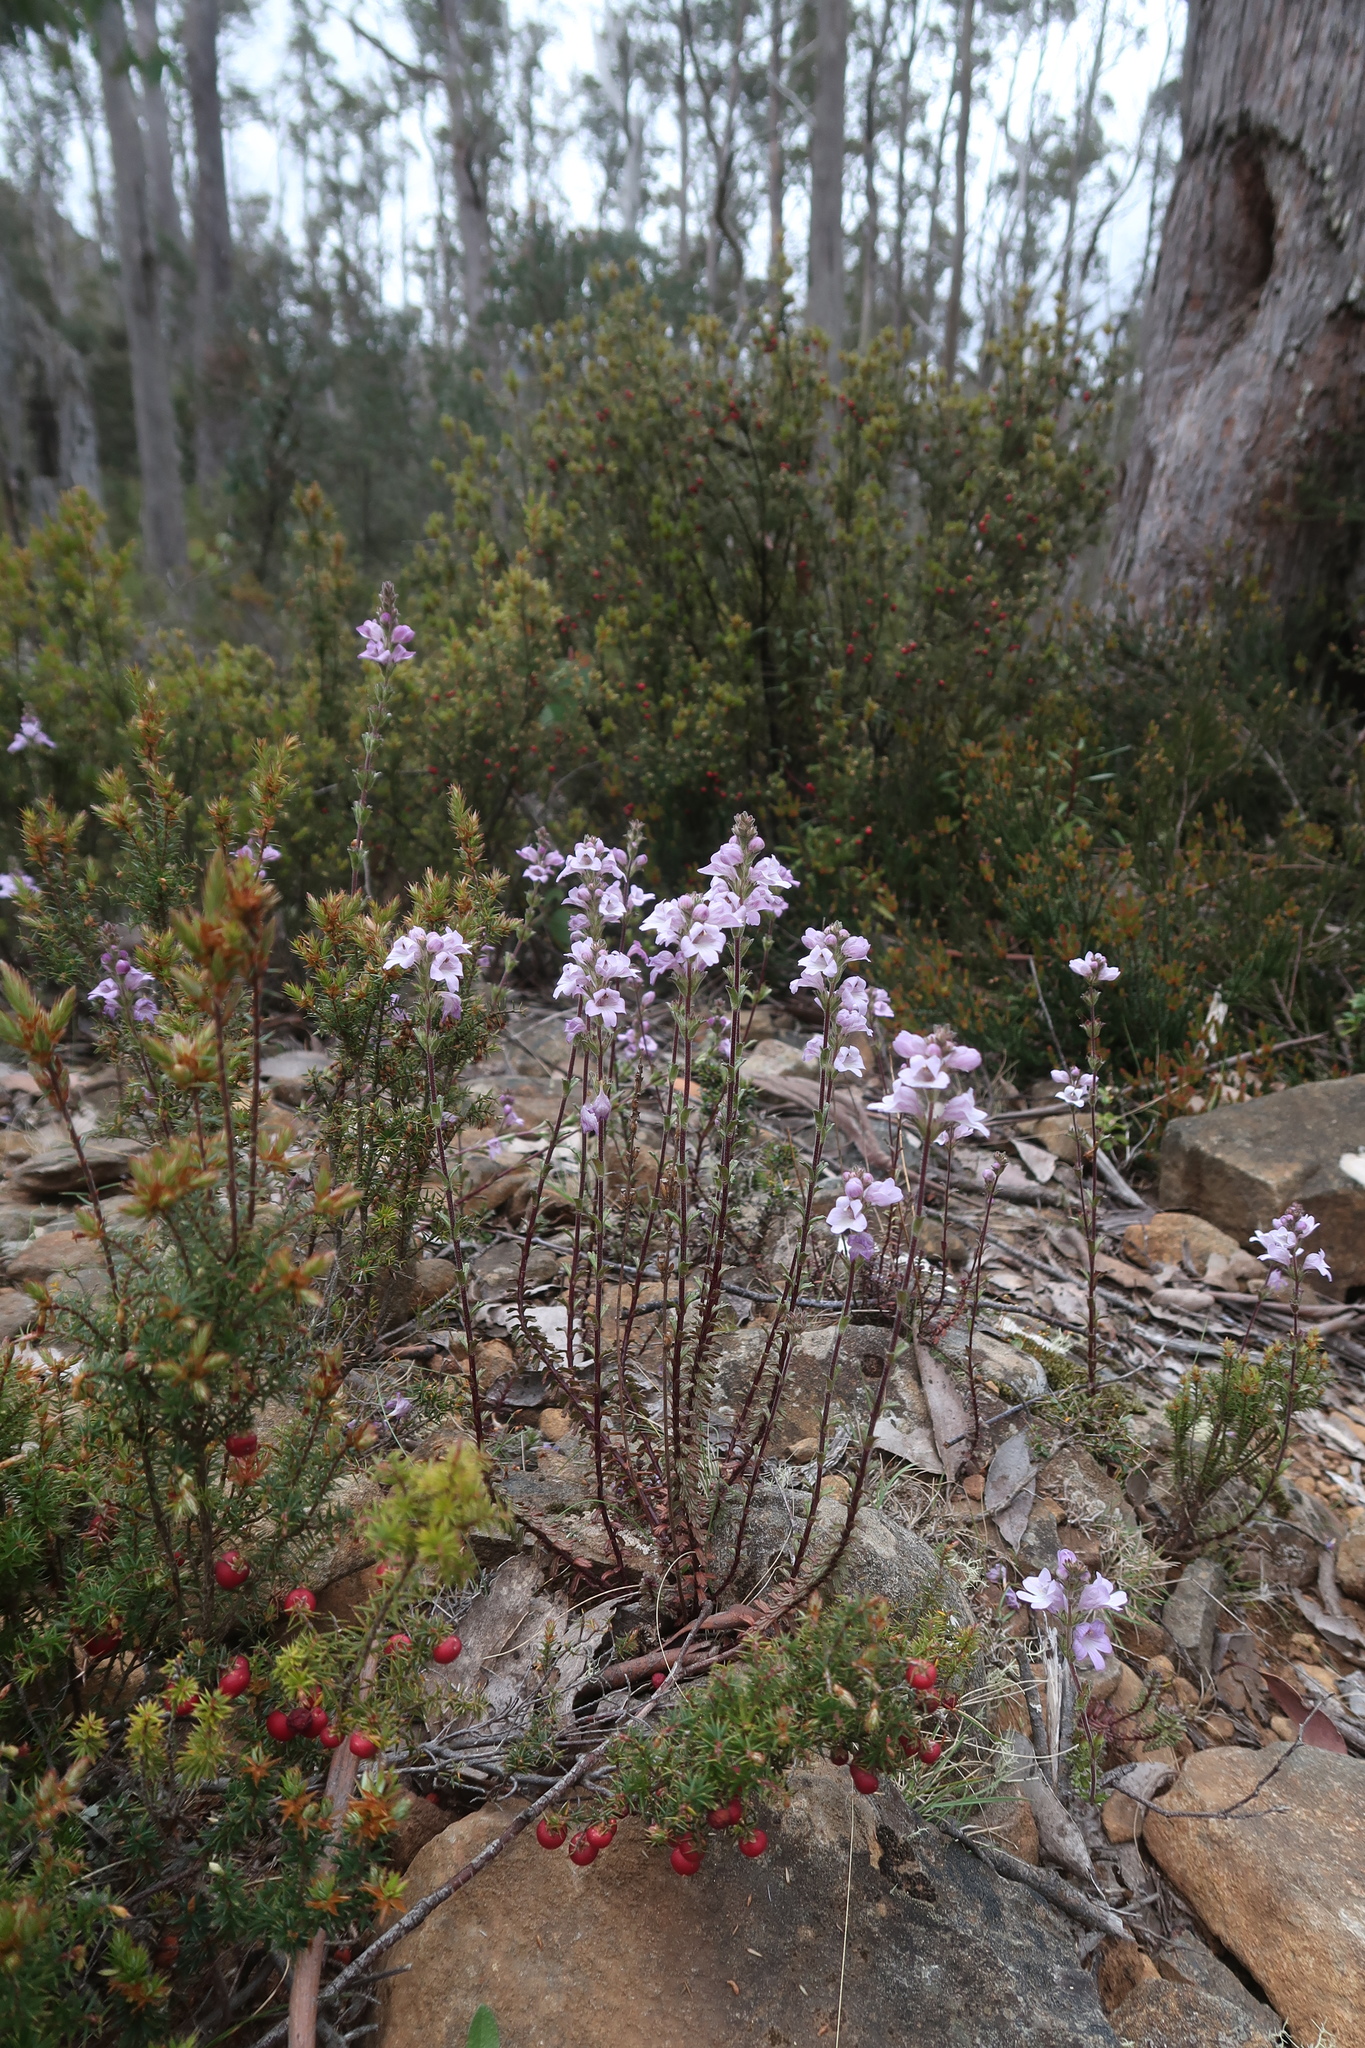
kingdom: Plantae
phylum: Tracheophyta
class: Magnoliopsida
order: Lamiales
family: Orobanchaceae
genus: Euphrasia
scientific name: Euphrasia collina
